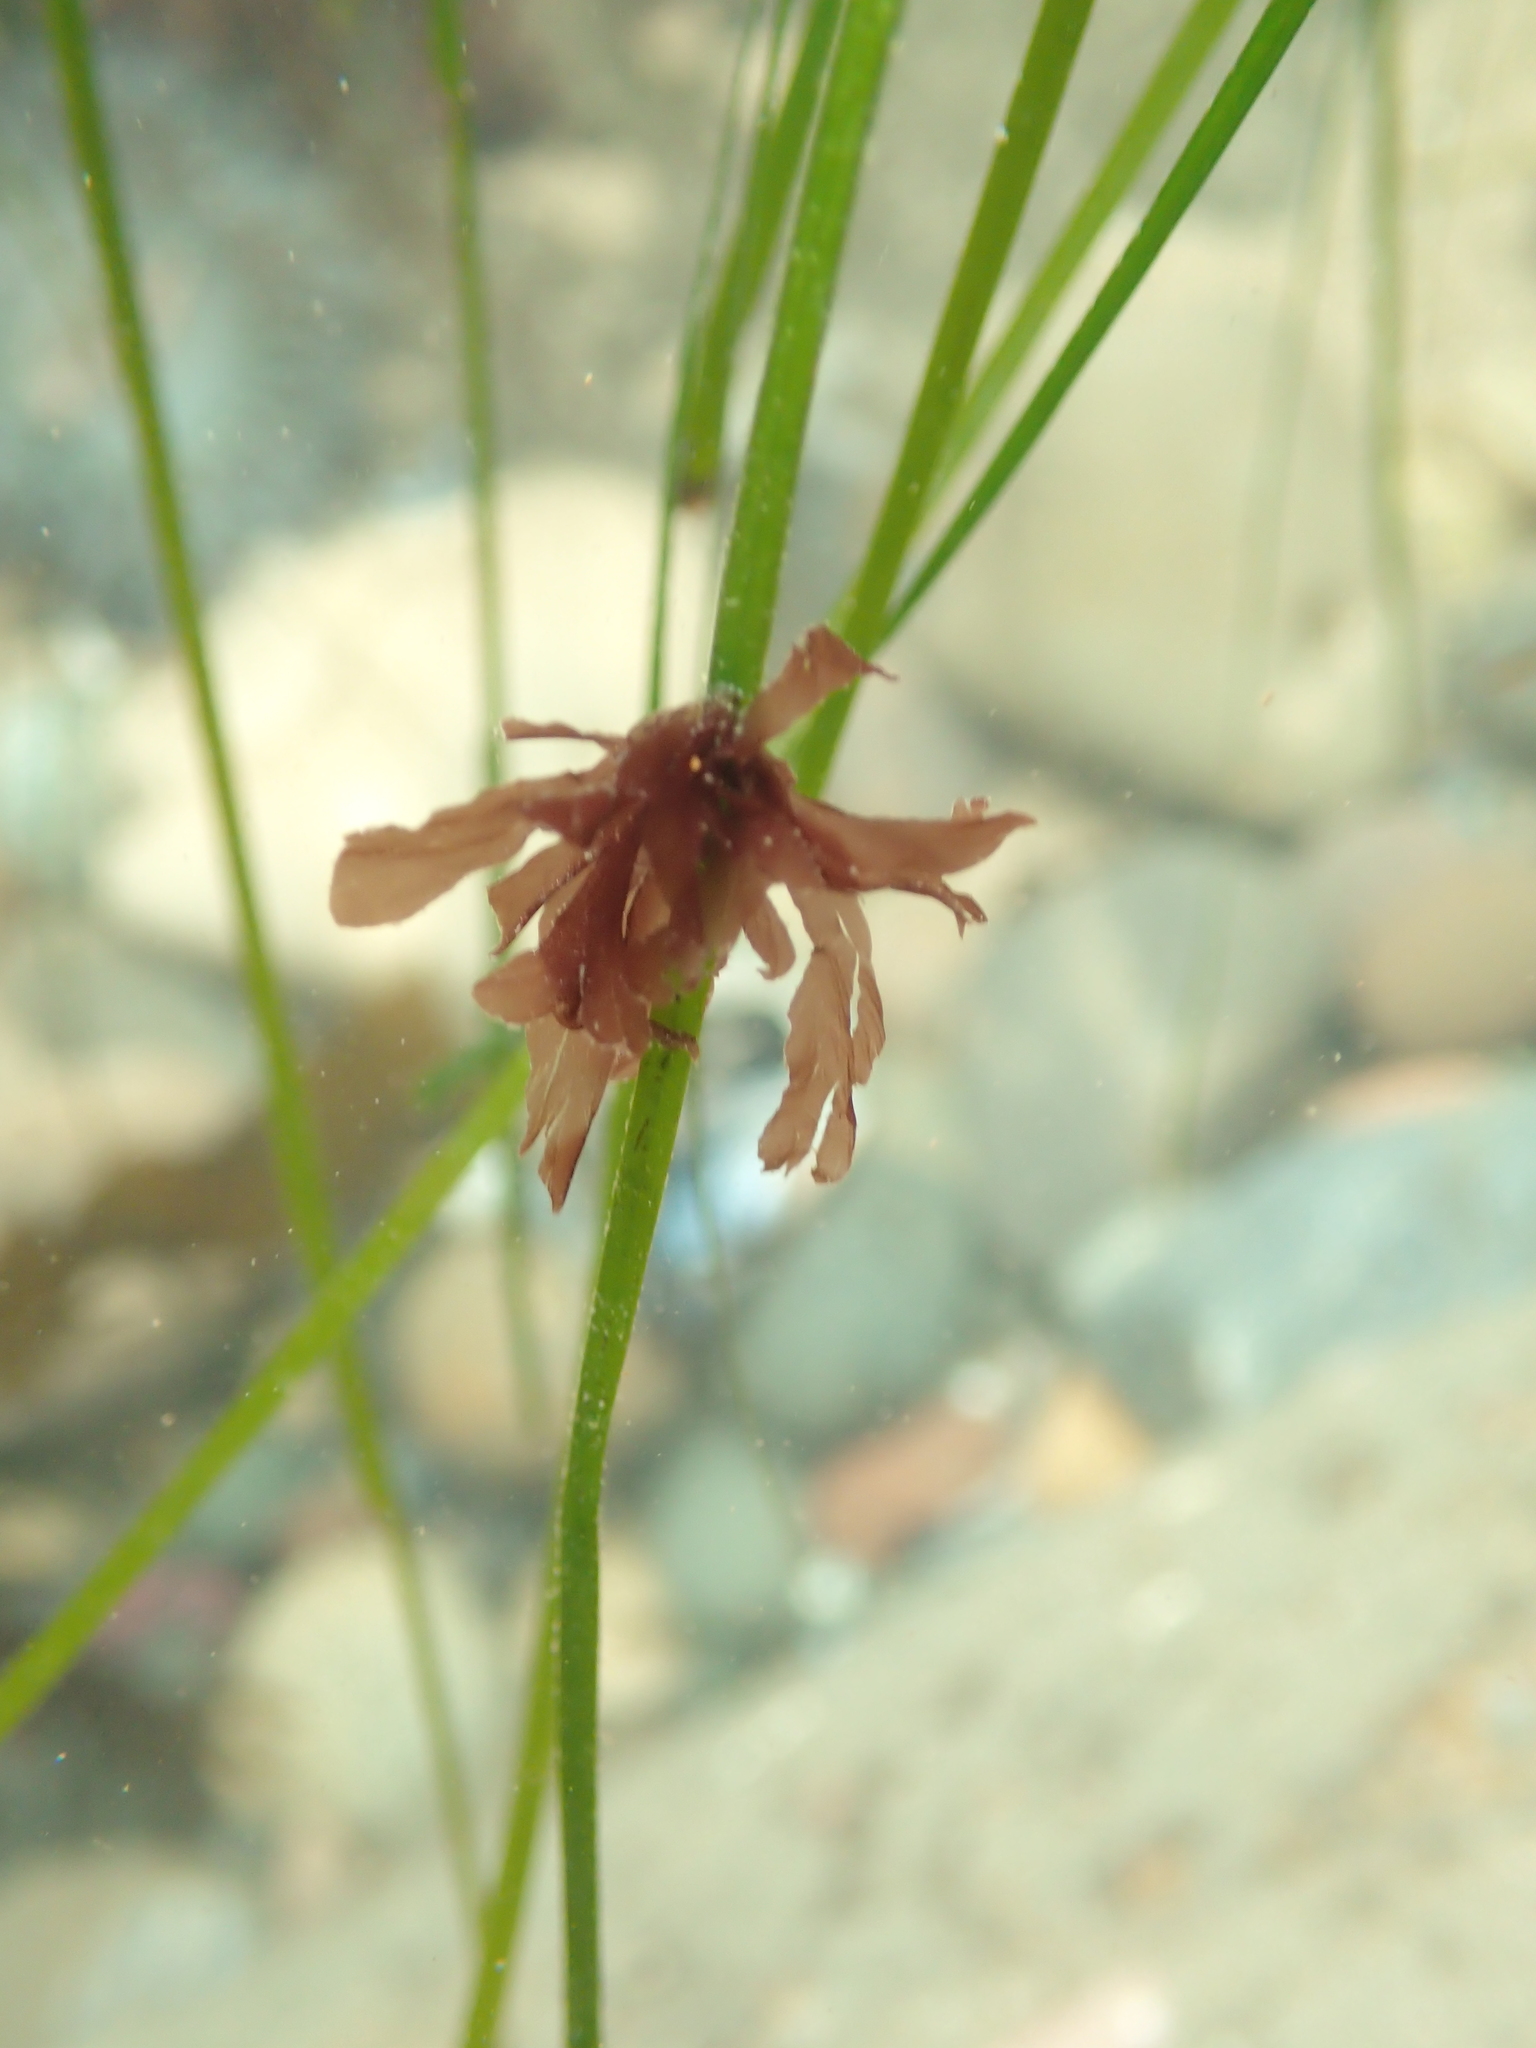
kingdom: Plantae
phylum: Rhodophyta
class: Compsopogonophyceae
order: Erythropeltidales
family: Erythrotrichiaceae
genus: Smithora
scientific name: Smithora naiadum
